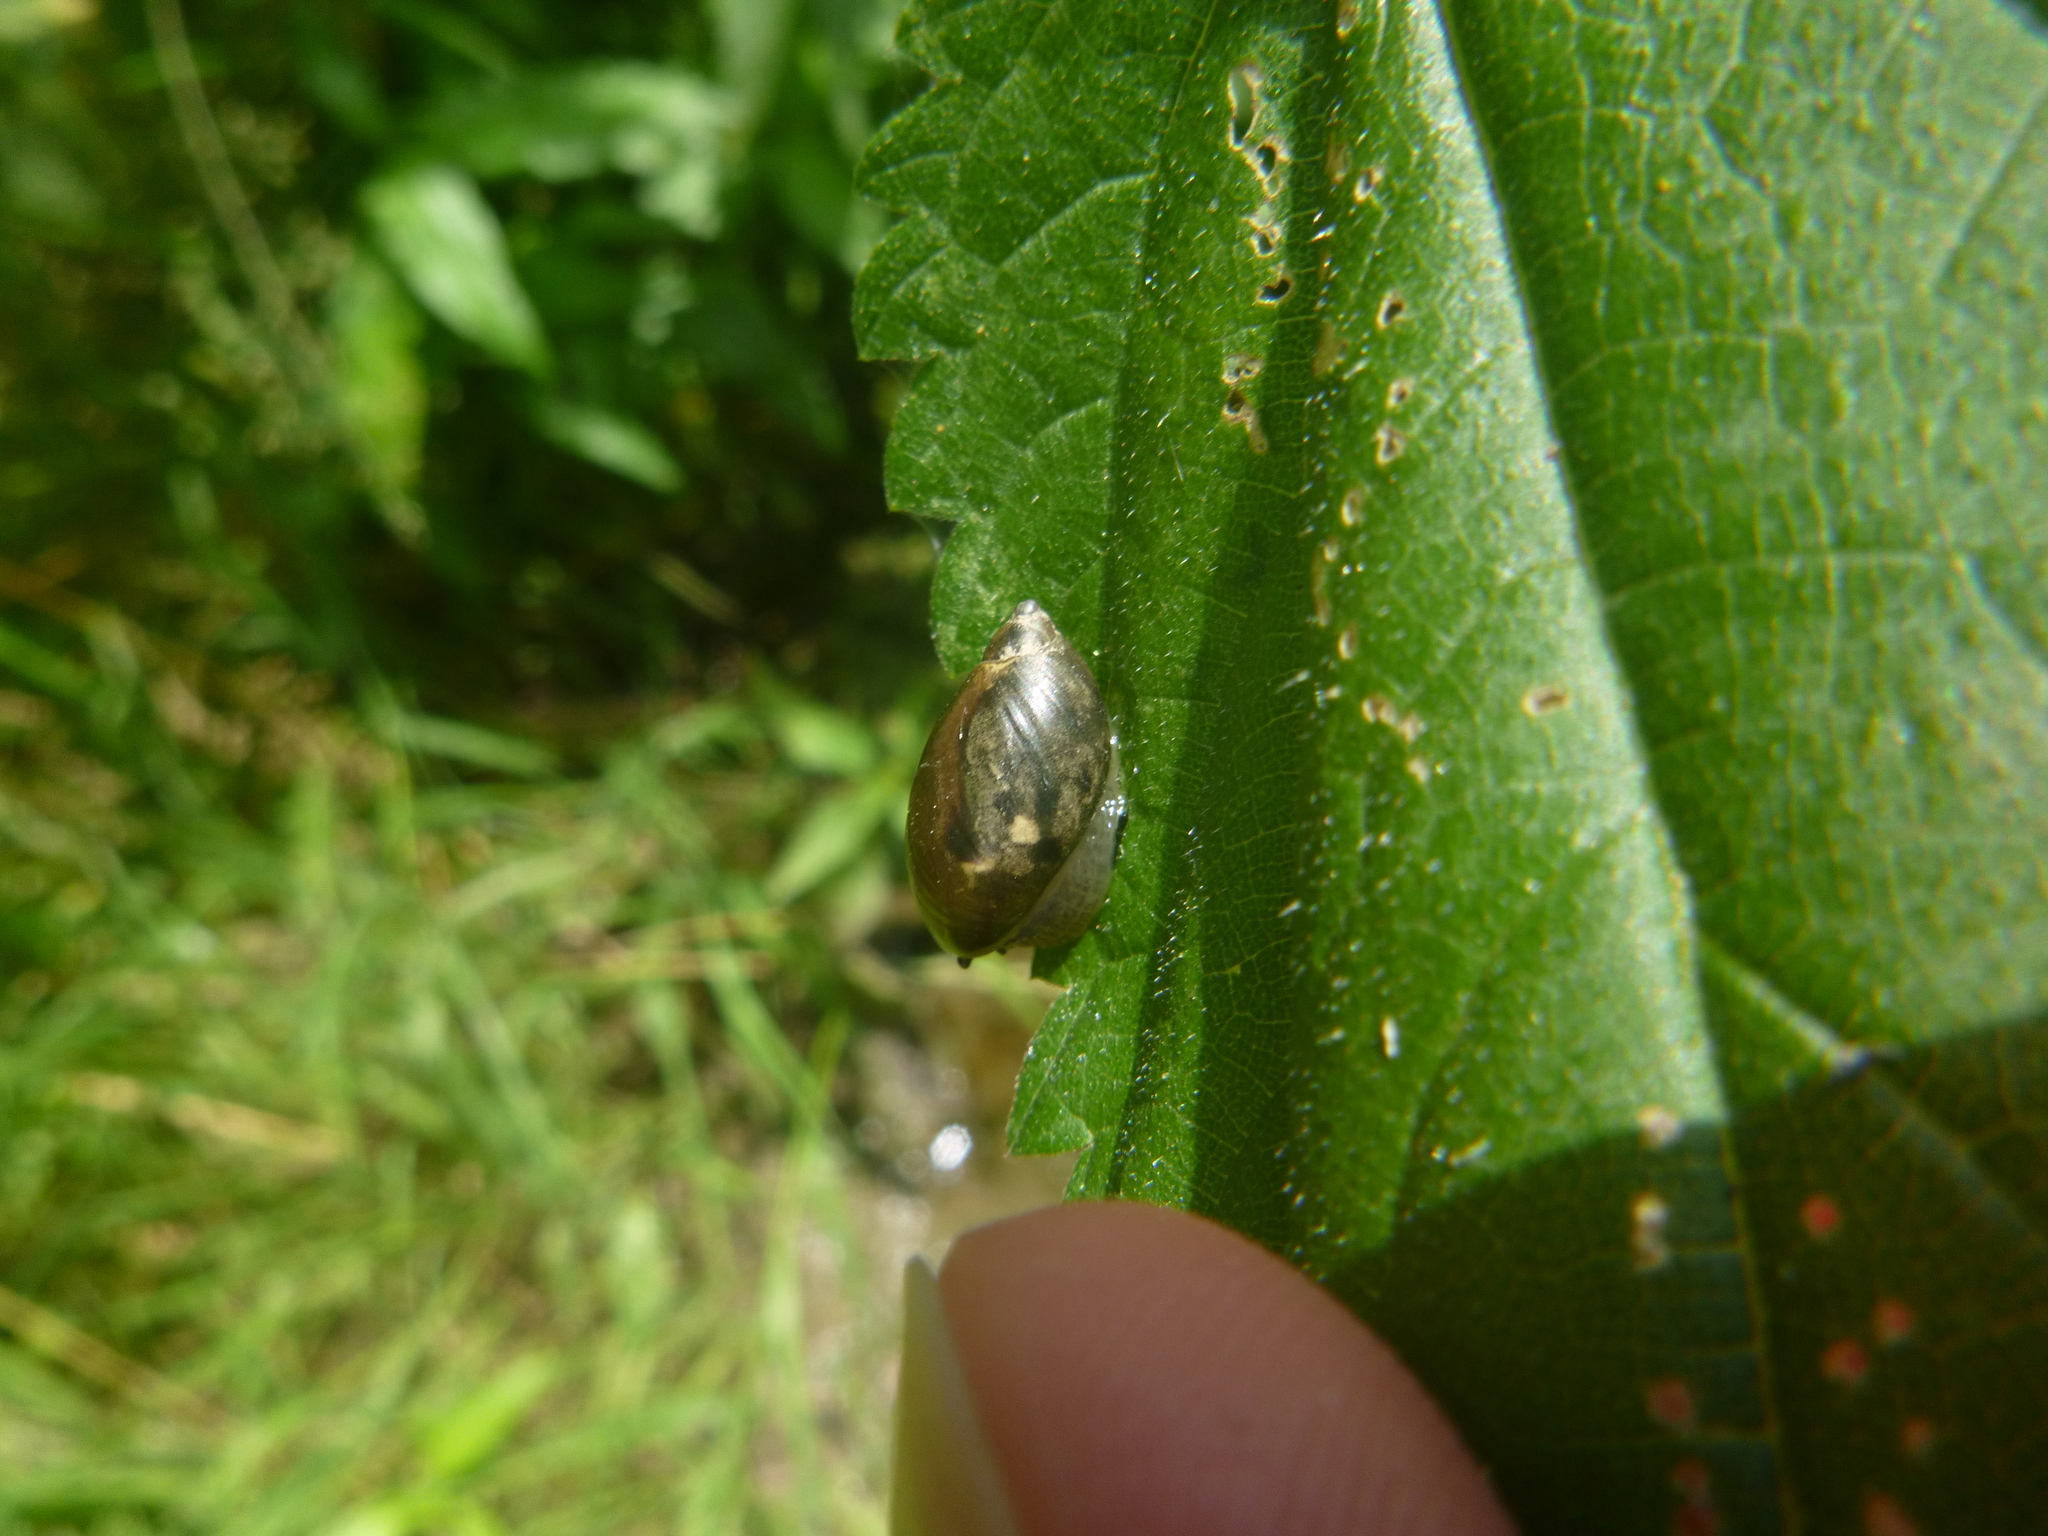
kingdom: Animalia
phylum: Mollusca
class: Gastropoda
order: Stylommatophora
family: Succineidae
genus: Succinea
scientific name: Succinea putris
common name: European ambersnail
